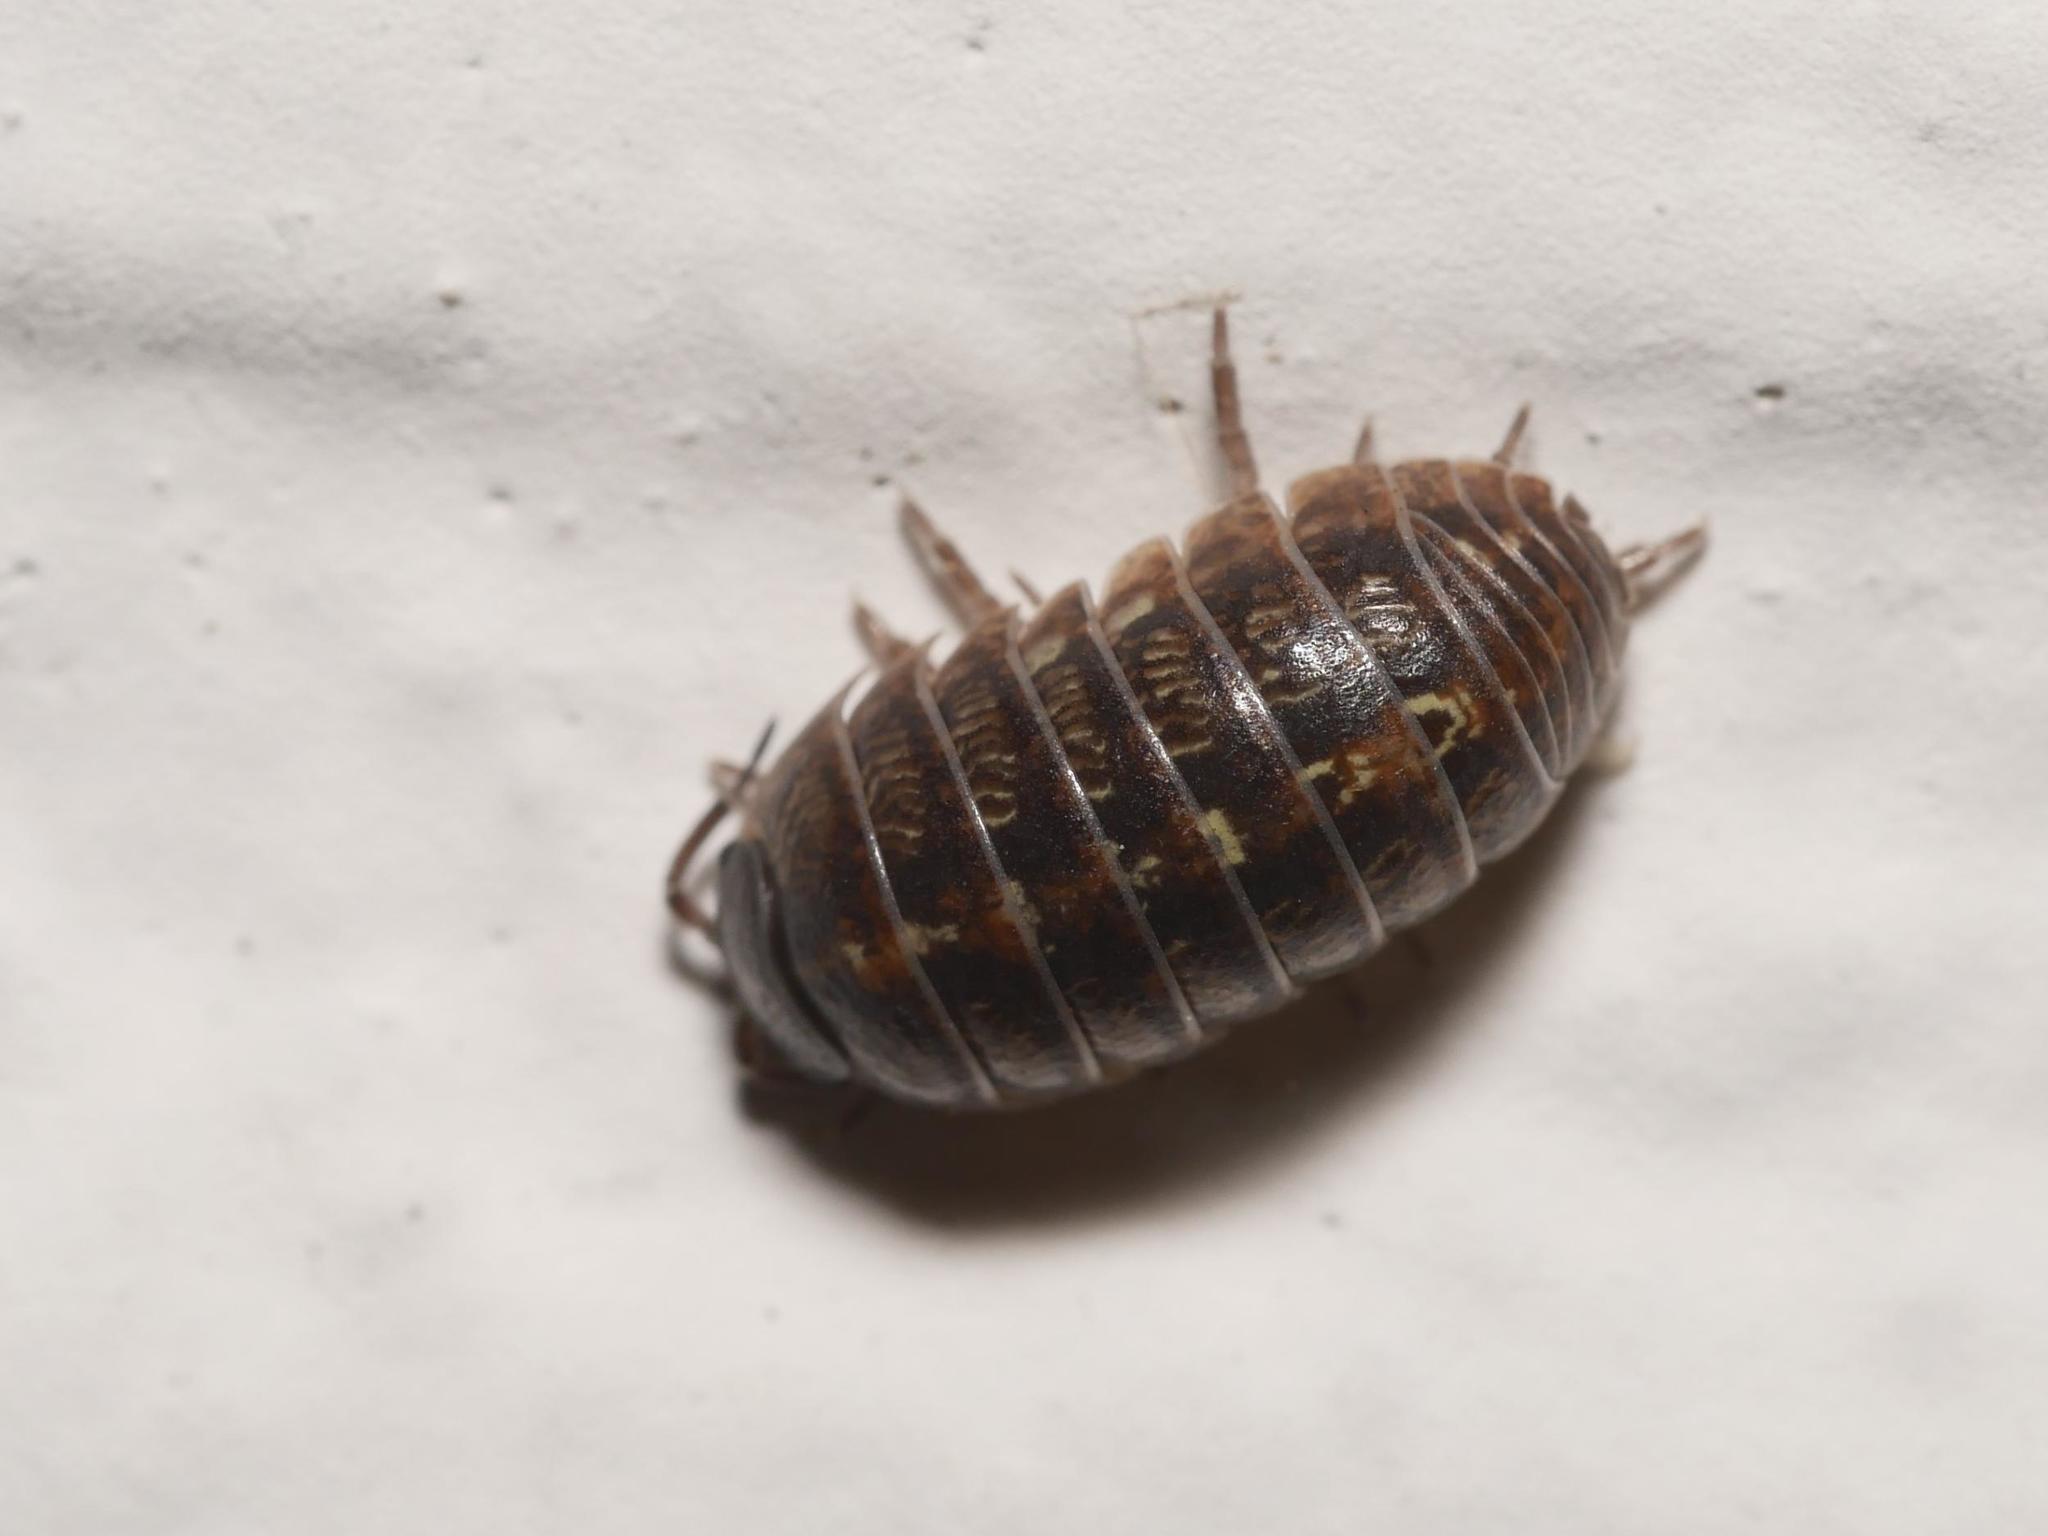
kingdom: Animalia
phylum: Arthropoda
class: Malacostraca
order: Isopoda
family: Armadillidiidae
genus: Armadillidium
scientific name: Armadillidium vulgare
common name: Common pill woodlouse
